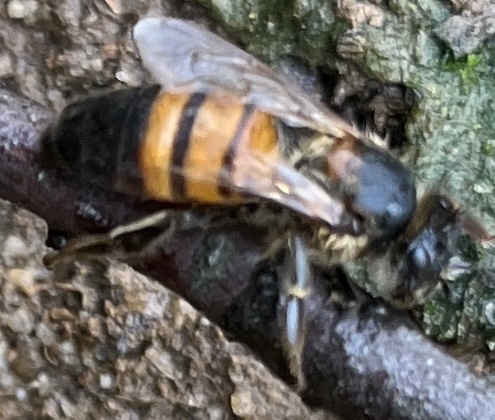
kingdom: Animalia
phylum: Arthropoda
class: Insecta
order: Hymenoptera
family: Apidae
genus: Apis
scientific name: Apis mellifera
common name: Honey bee
